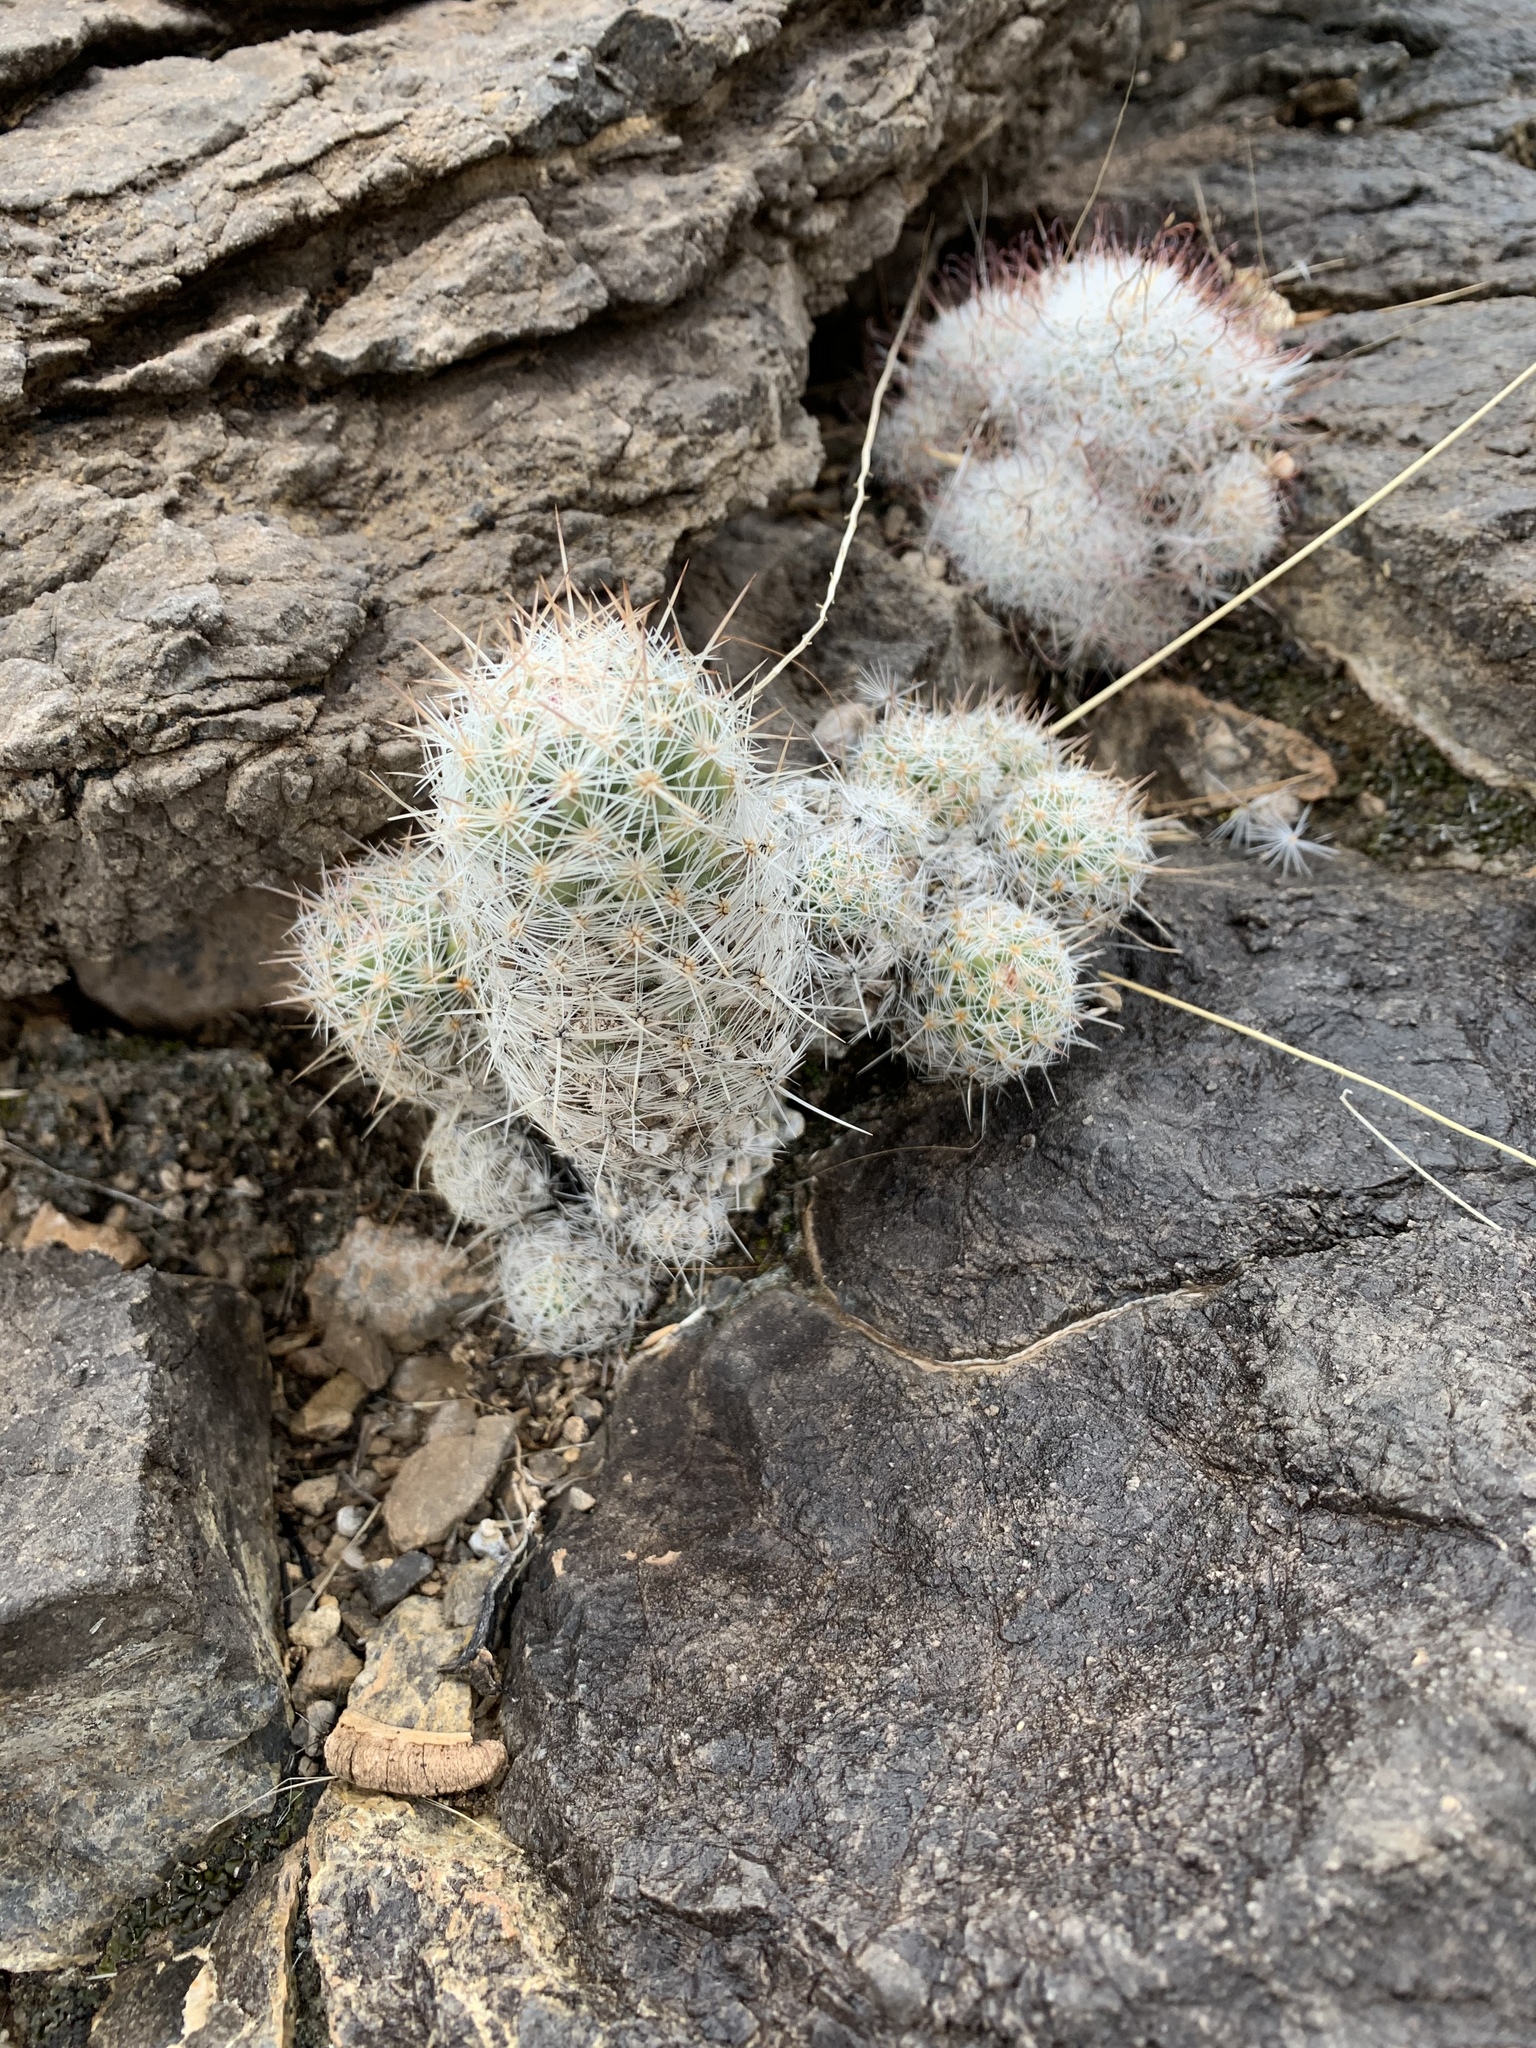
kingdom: Plantae
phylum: Tracheophyta
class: Magnoliopsida
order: Caryophyllales
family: Cactaceae
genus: Pelecyphora
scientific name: Pelecyphora tuberculosa
